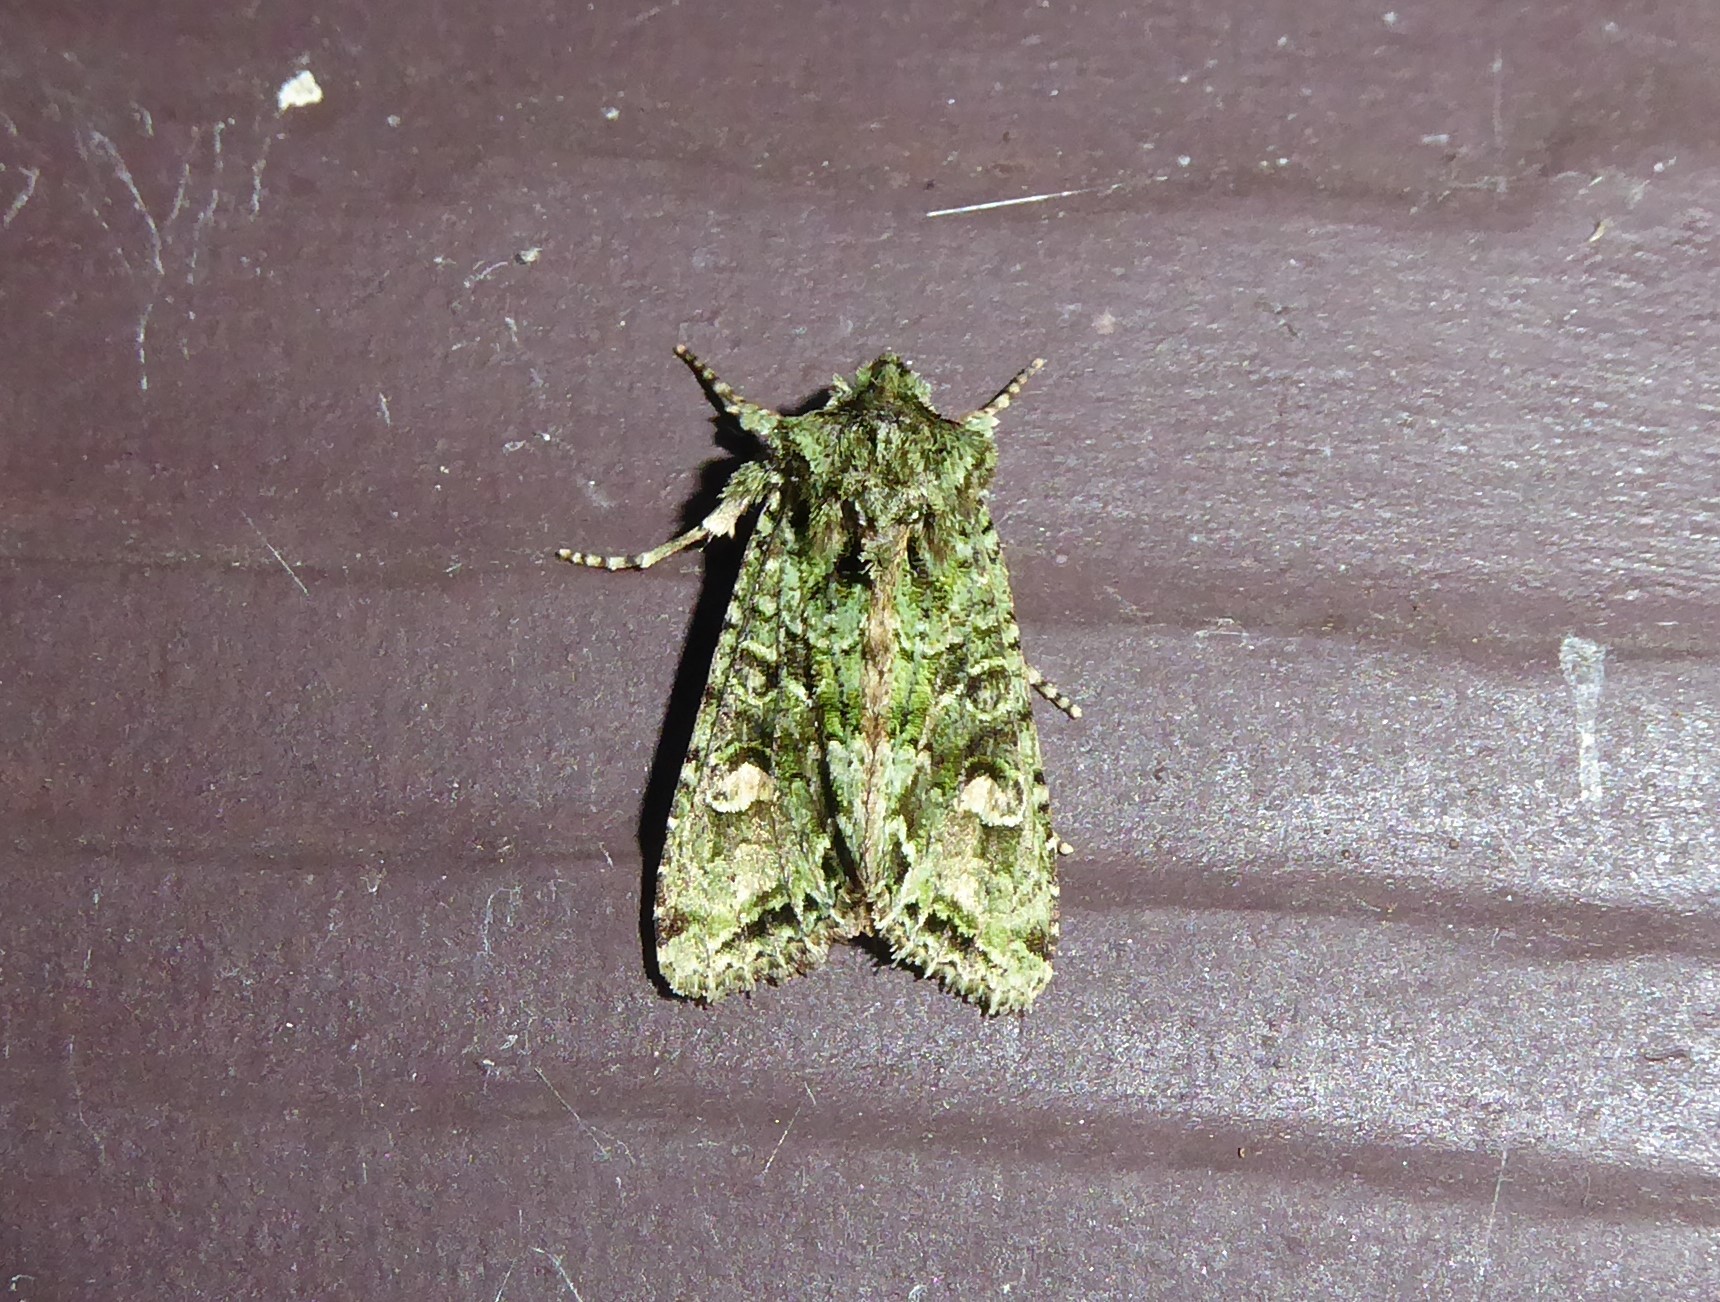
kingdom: Animalia
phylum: Arthropoda
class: Insecta
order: Lepidoptera
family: Noctuidae
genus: Ichneutica
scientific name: Ichneutica
